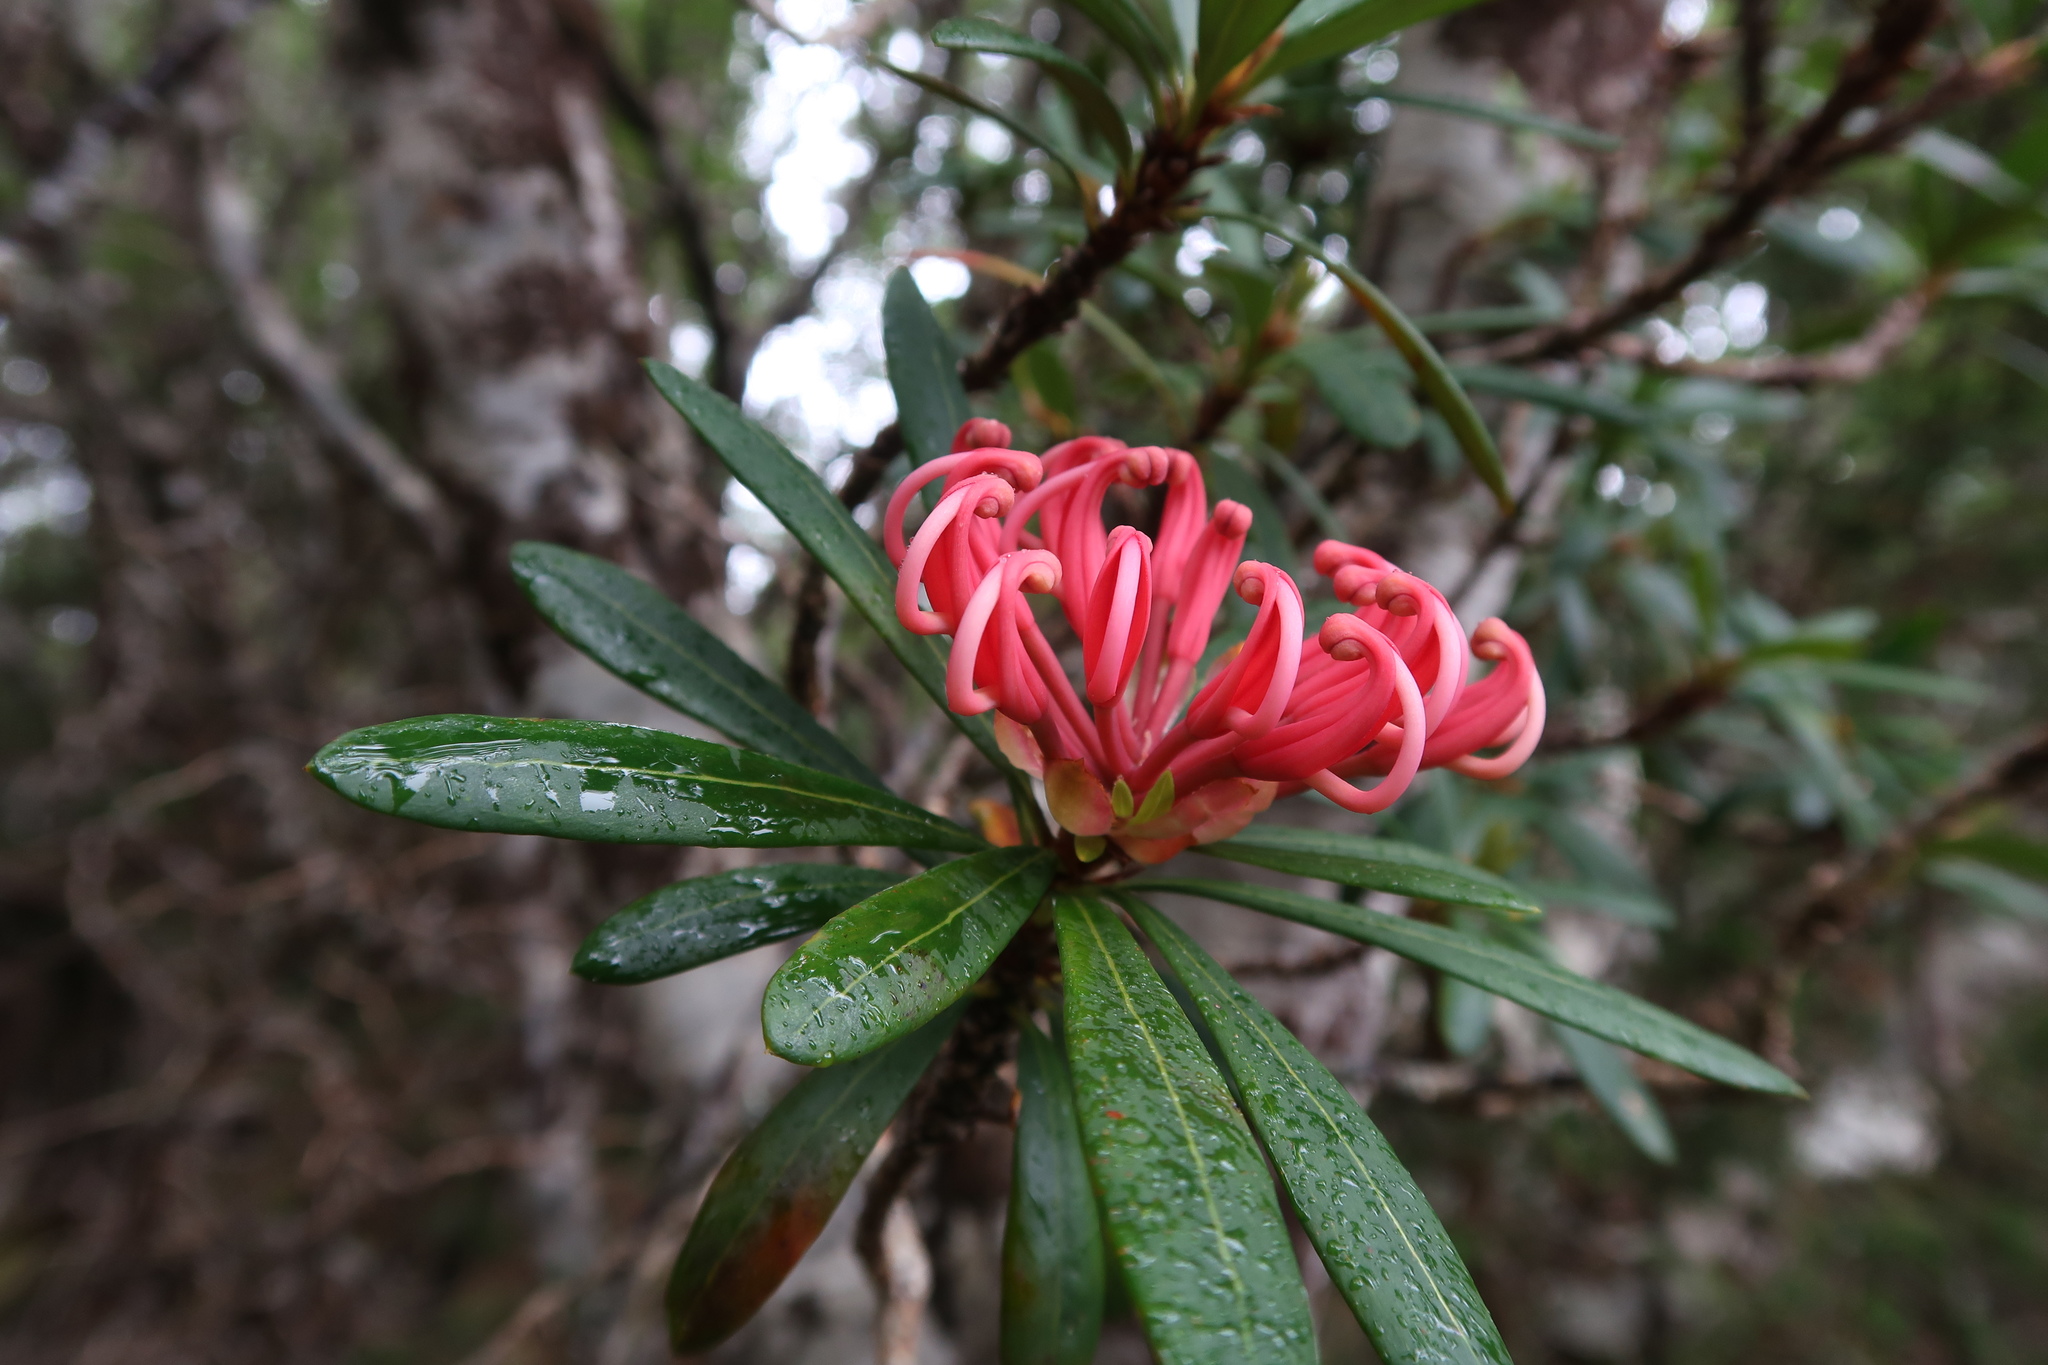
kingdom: Plantae
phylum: Tracheophyta
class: Magnoliopsida
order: Proteales
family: Proteaceae
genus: Telopea
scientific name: Telopea truncata
